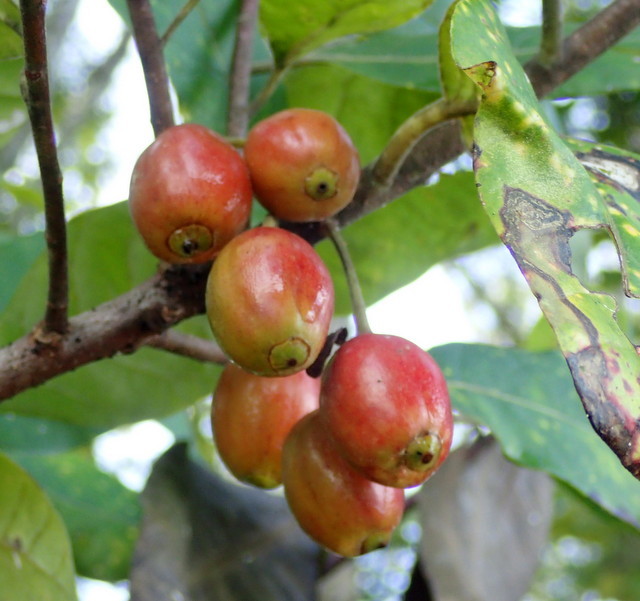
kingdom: Plantae
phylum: Tracheophyta
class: Magnoliopsida
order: Cornales
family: Nyssaceae
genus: Nyssa
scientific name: Nyssa ogeche
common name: Ogeechee tupelo
